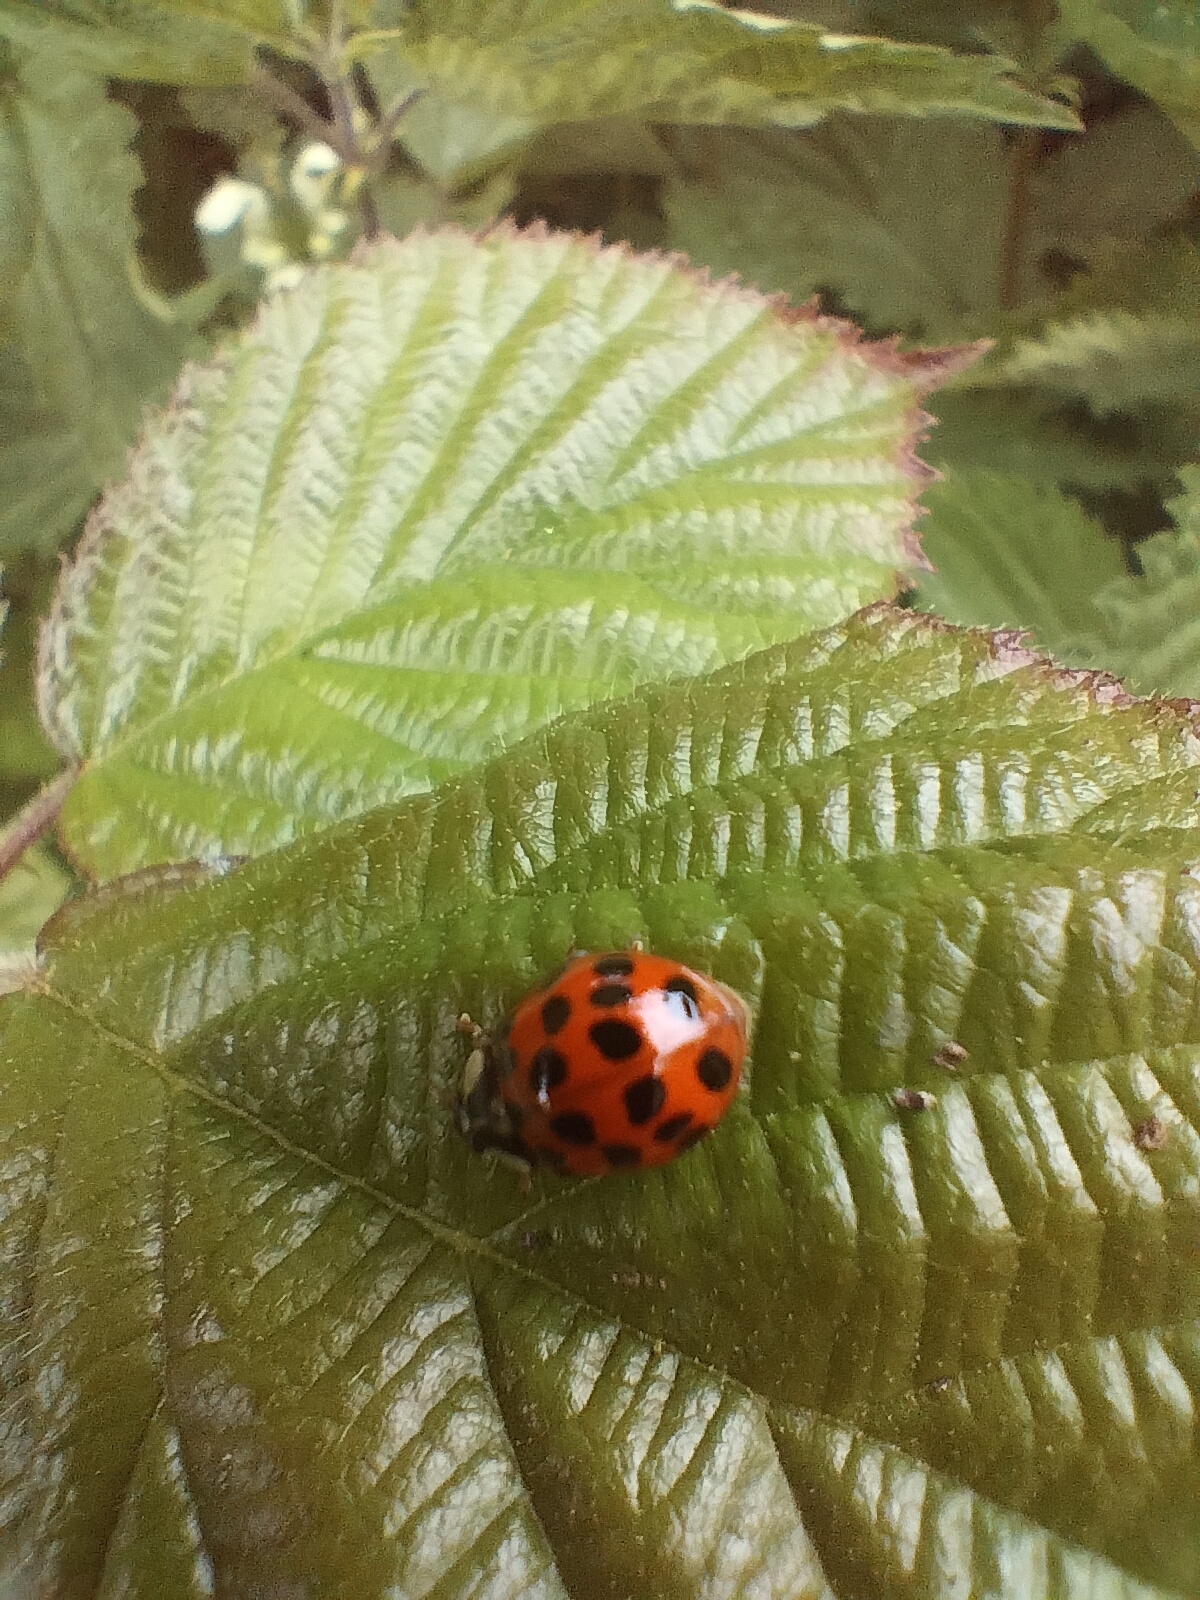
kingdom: Animalia
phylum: Arthropoda
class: Insecta
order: Coleoptera
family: Coccinellidae
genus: Harmonia
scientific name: Harmonia axyridis
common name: Harlequin ladybird
